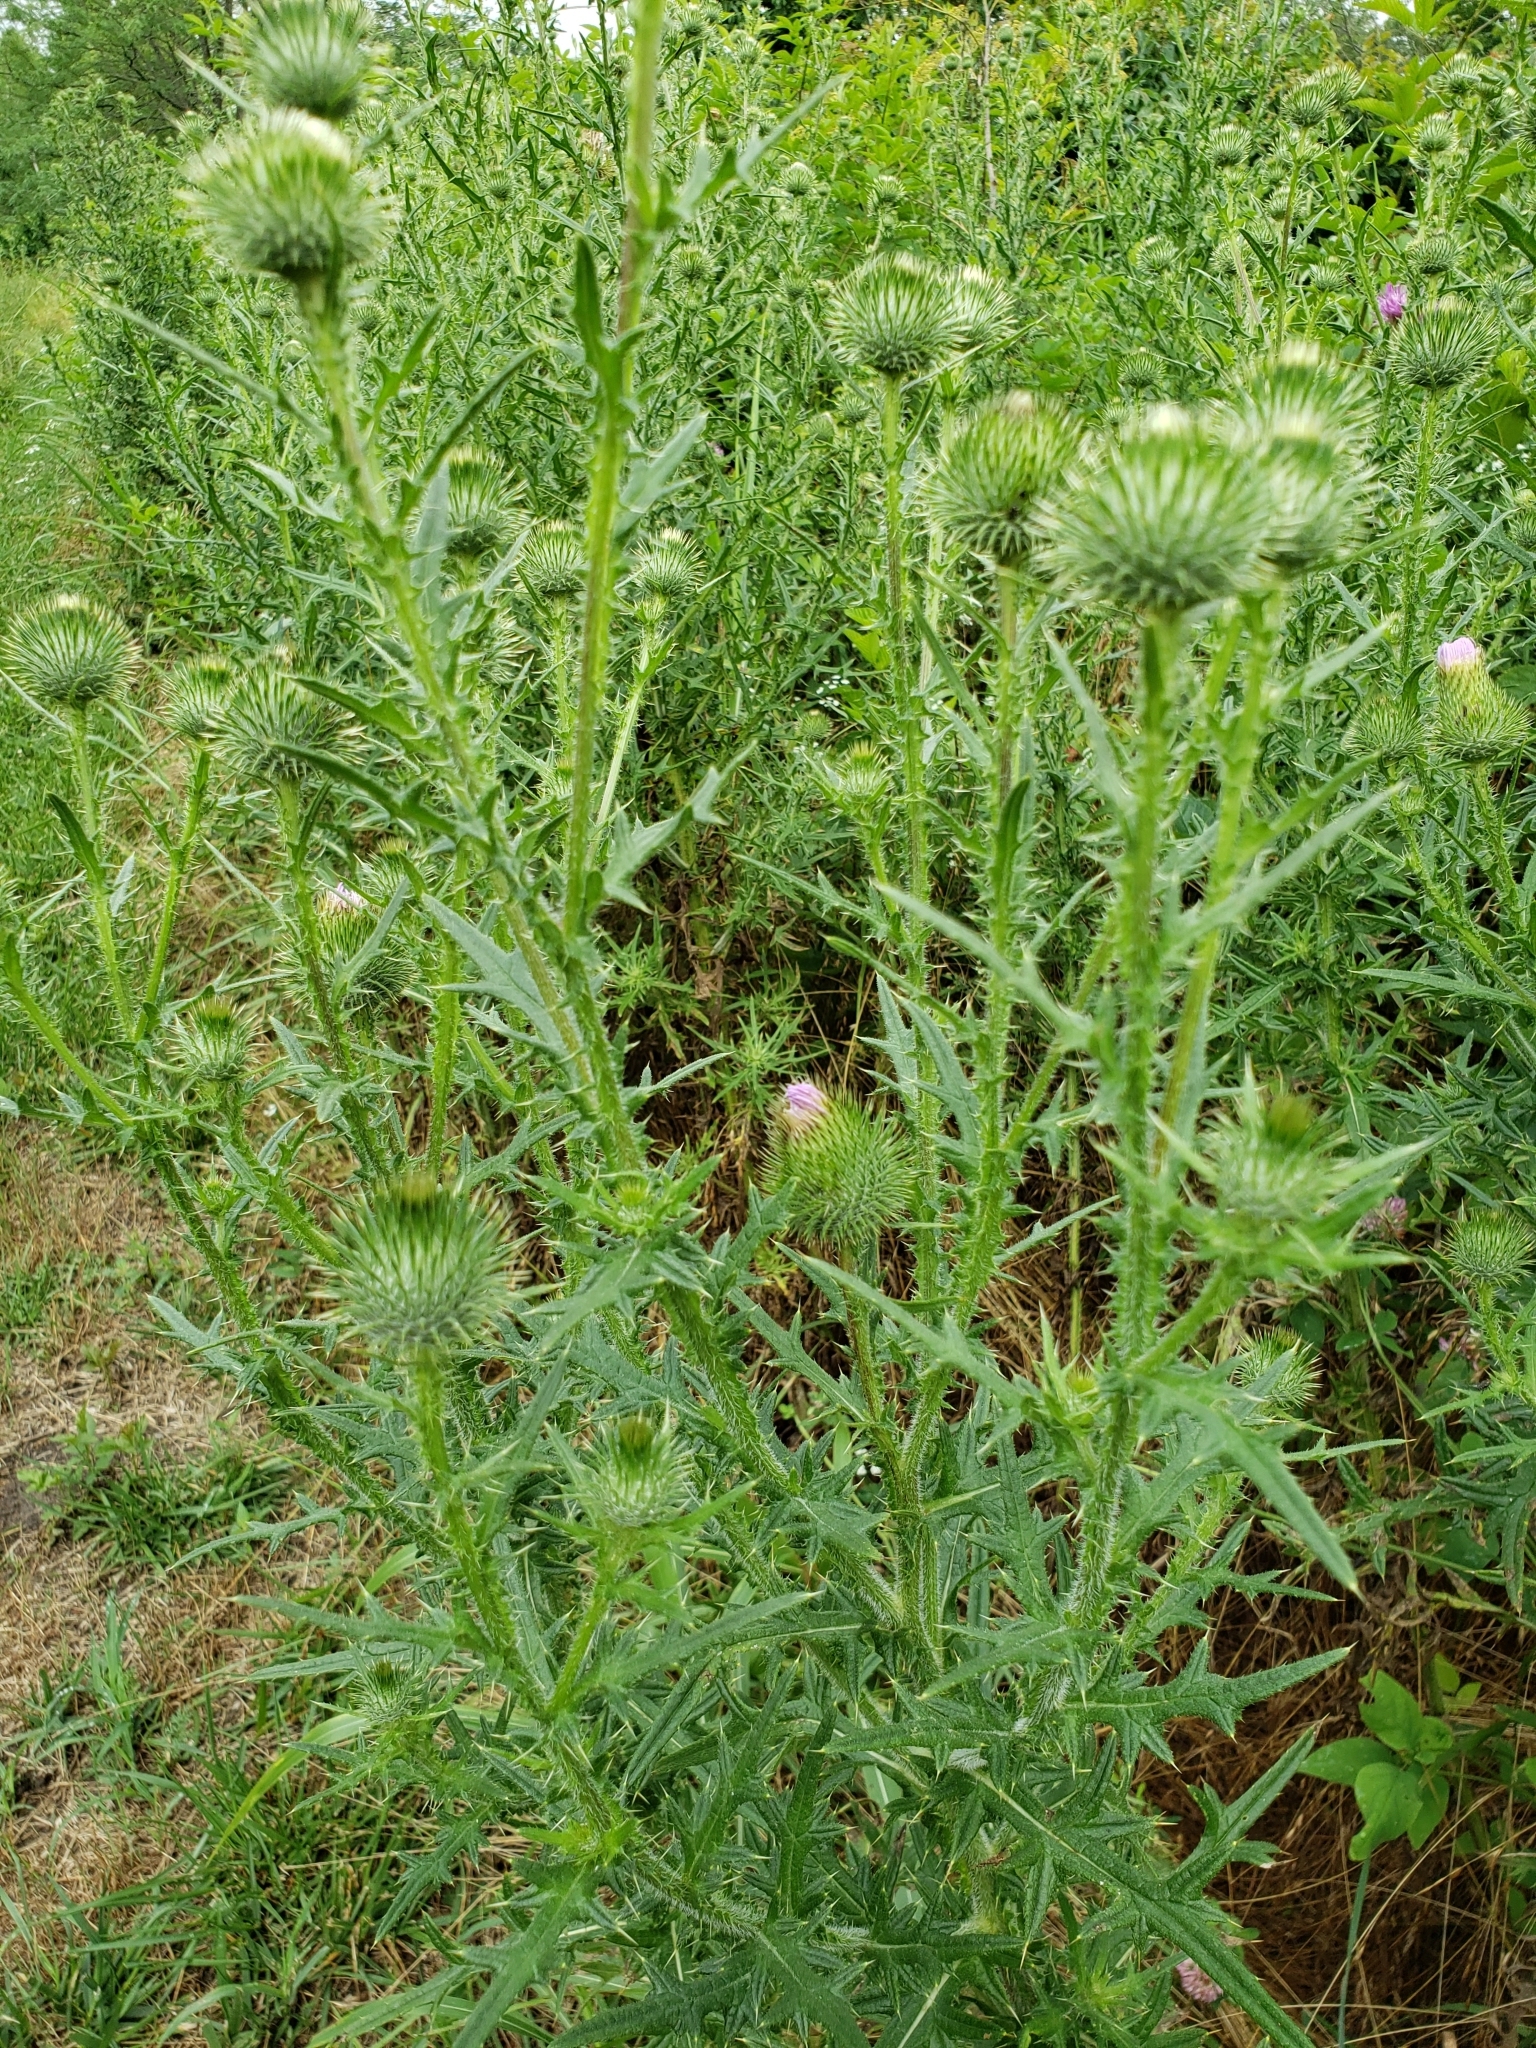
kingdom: Plantae
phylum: Tracheophyta
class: Magnoliopsida
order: Asterales
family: Asteraceae
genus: Cirsium
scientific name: Cirsium vulgare
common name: Bull thistle
